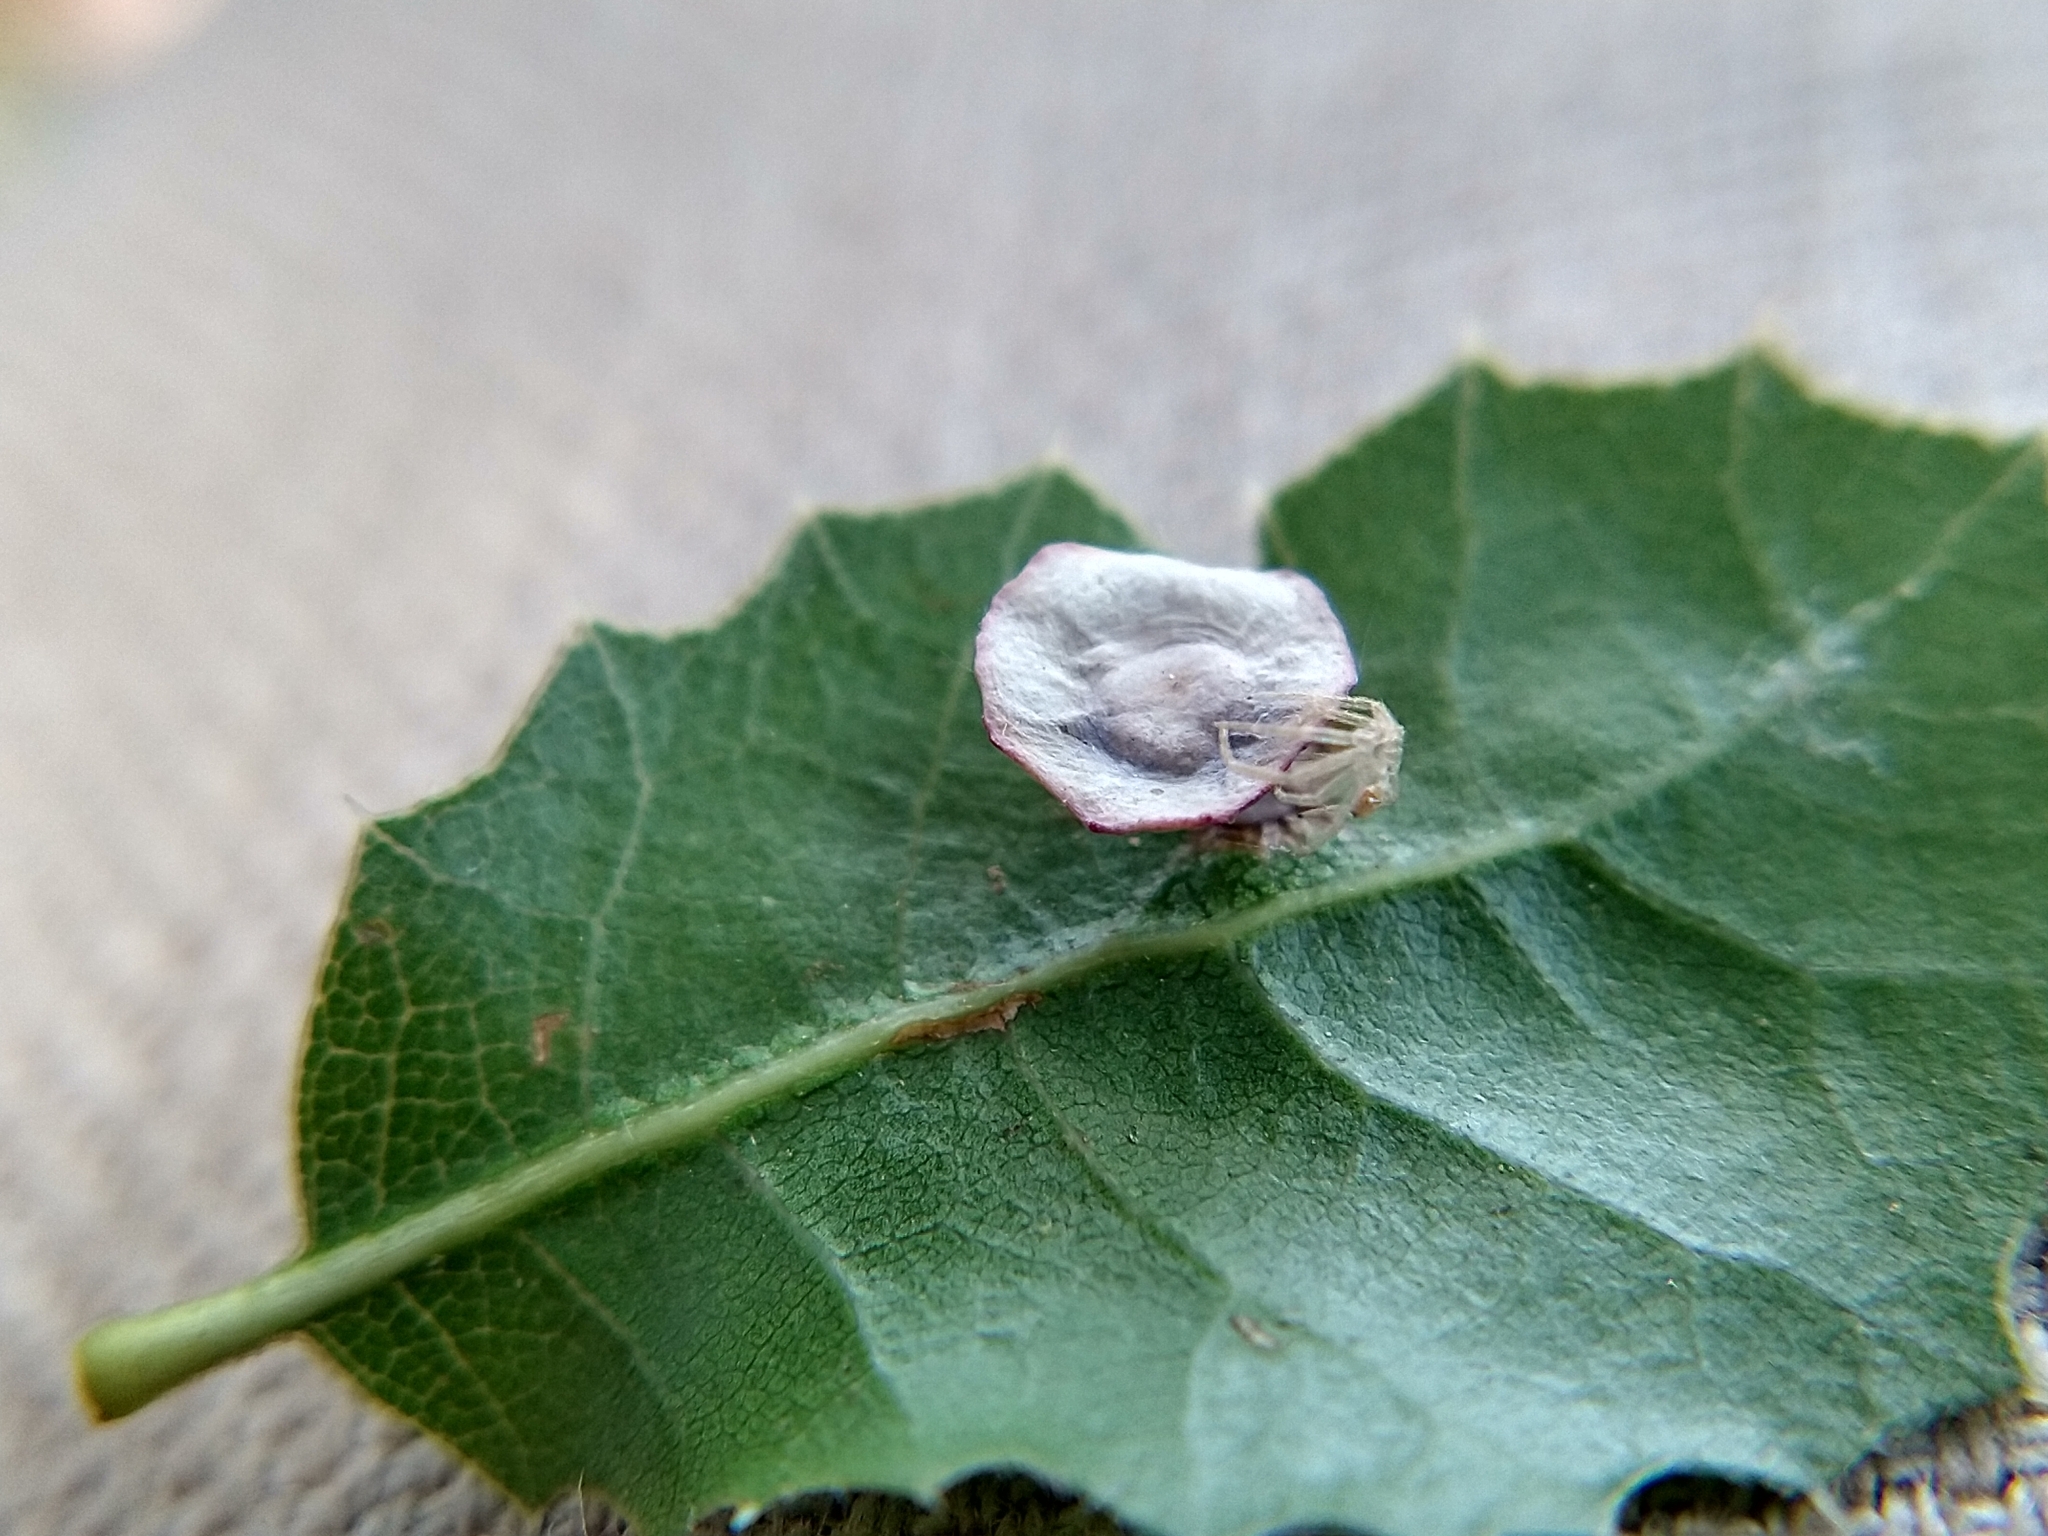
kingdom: Animalia
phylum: Arthropoda
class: Insecta
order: Hymenoptera
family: Cynipidae
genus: Amphibolips
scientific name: Amphibolips quercuspomiformis
